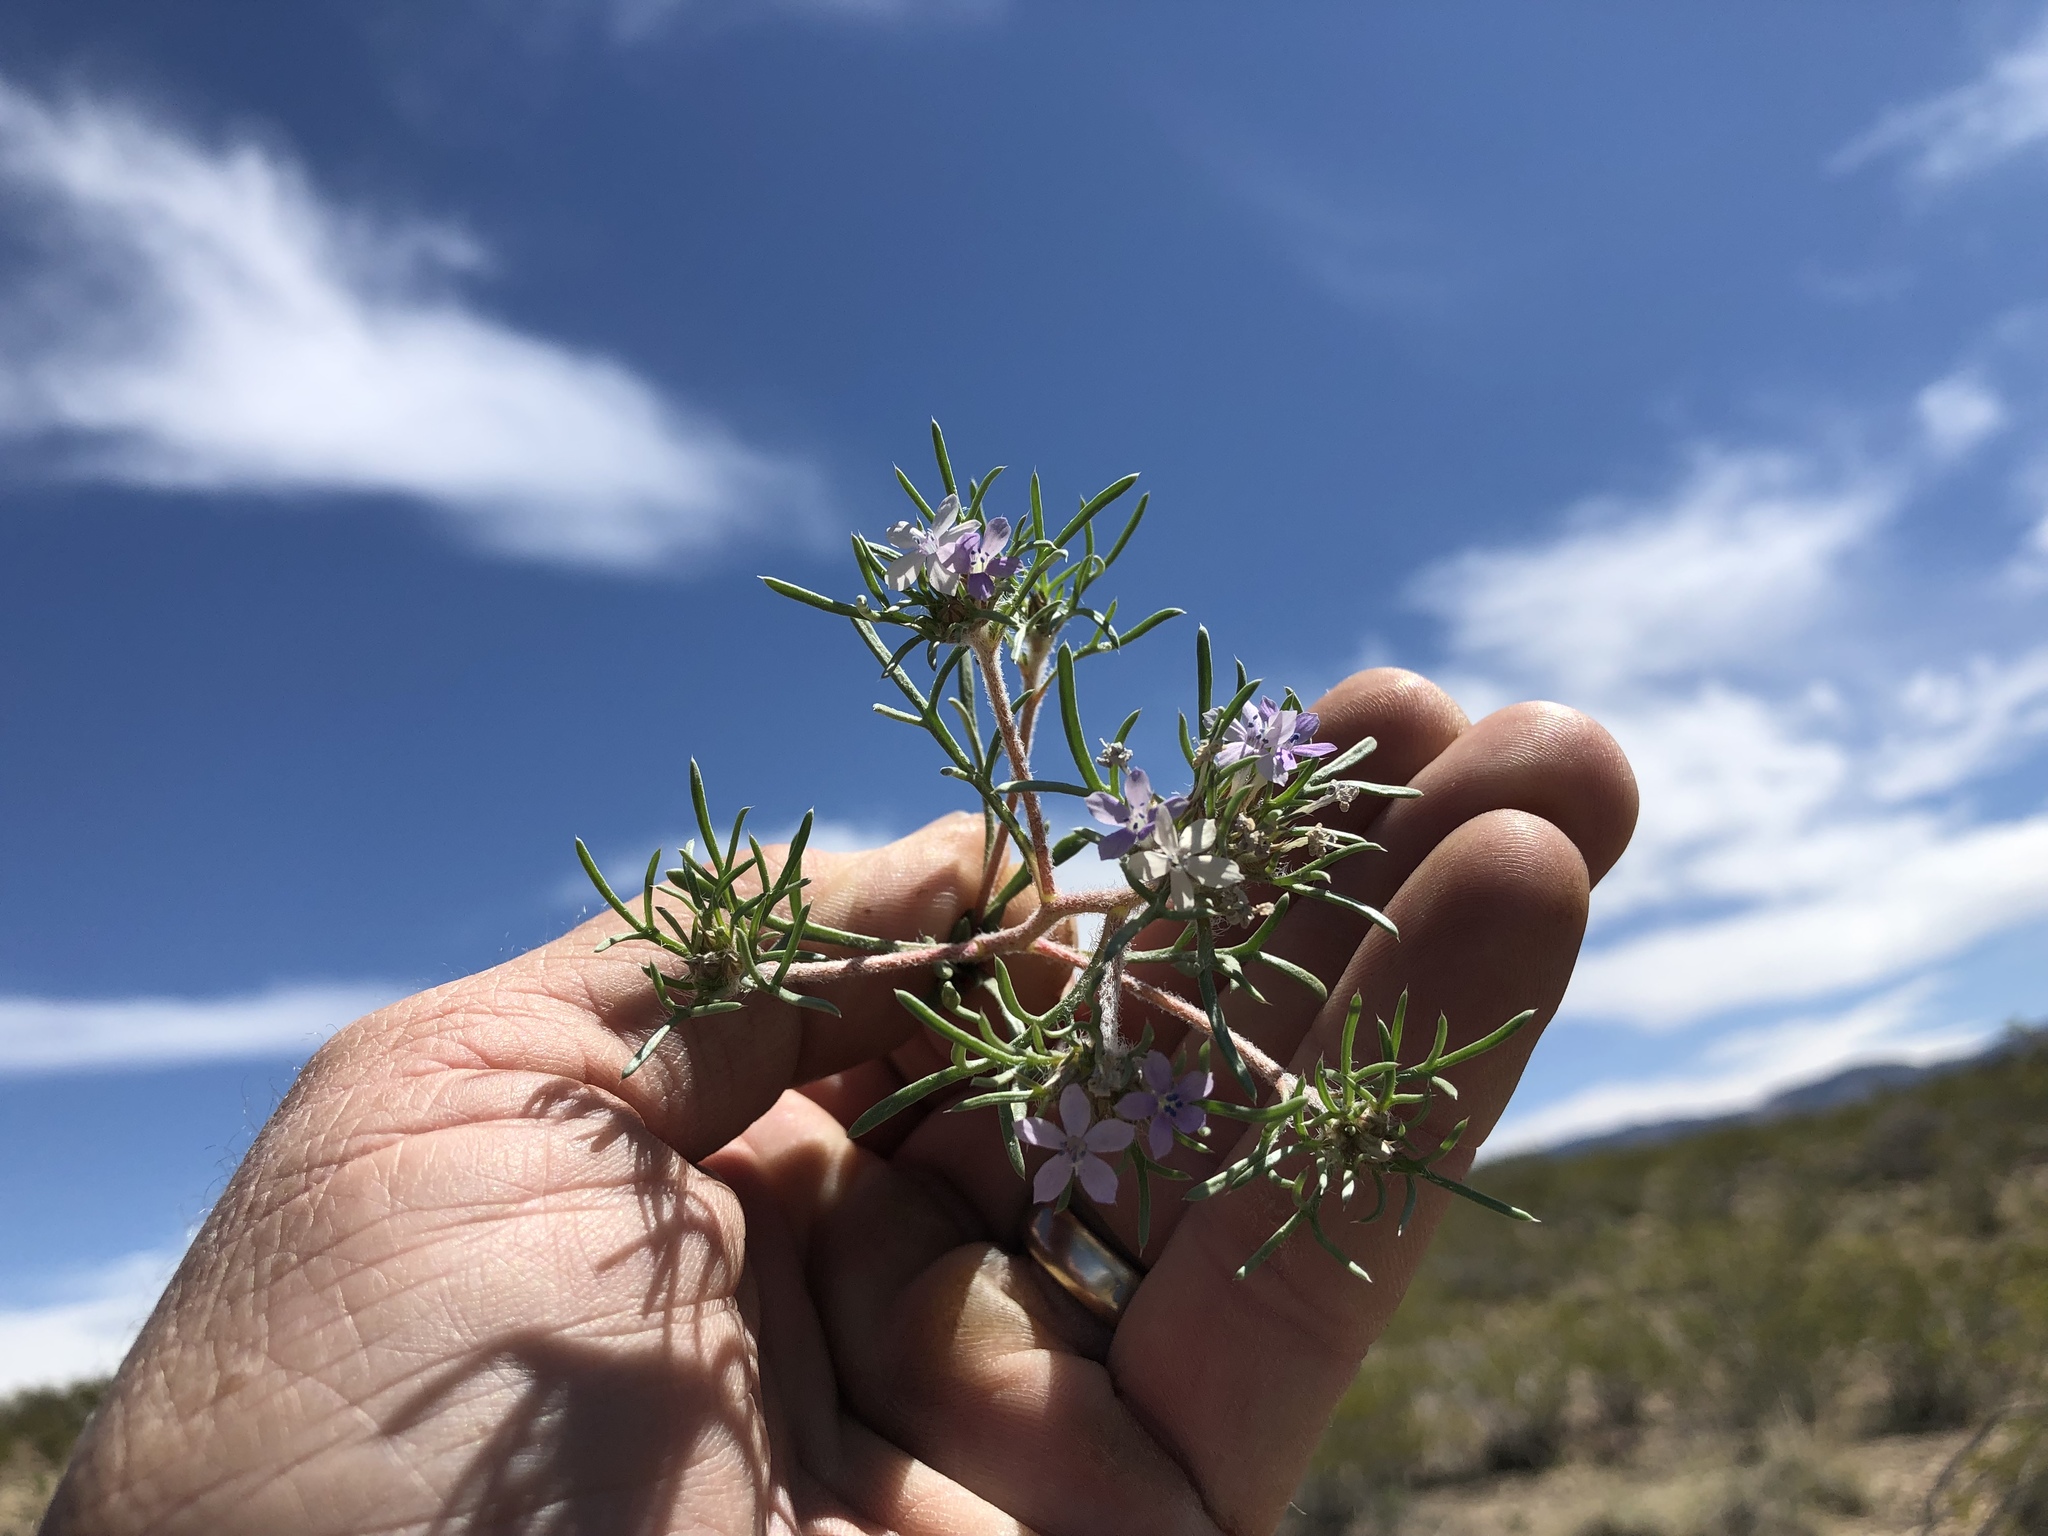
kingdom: Plantae
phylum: Tracheophyta
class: Magnoliopsida
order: Ericales
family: Polemoniaceae
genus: Ipomopsis
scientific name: Ipomopsis pumila
